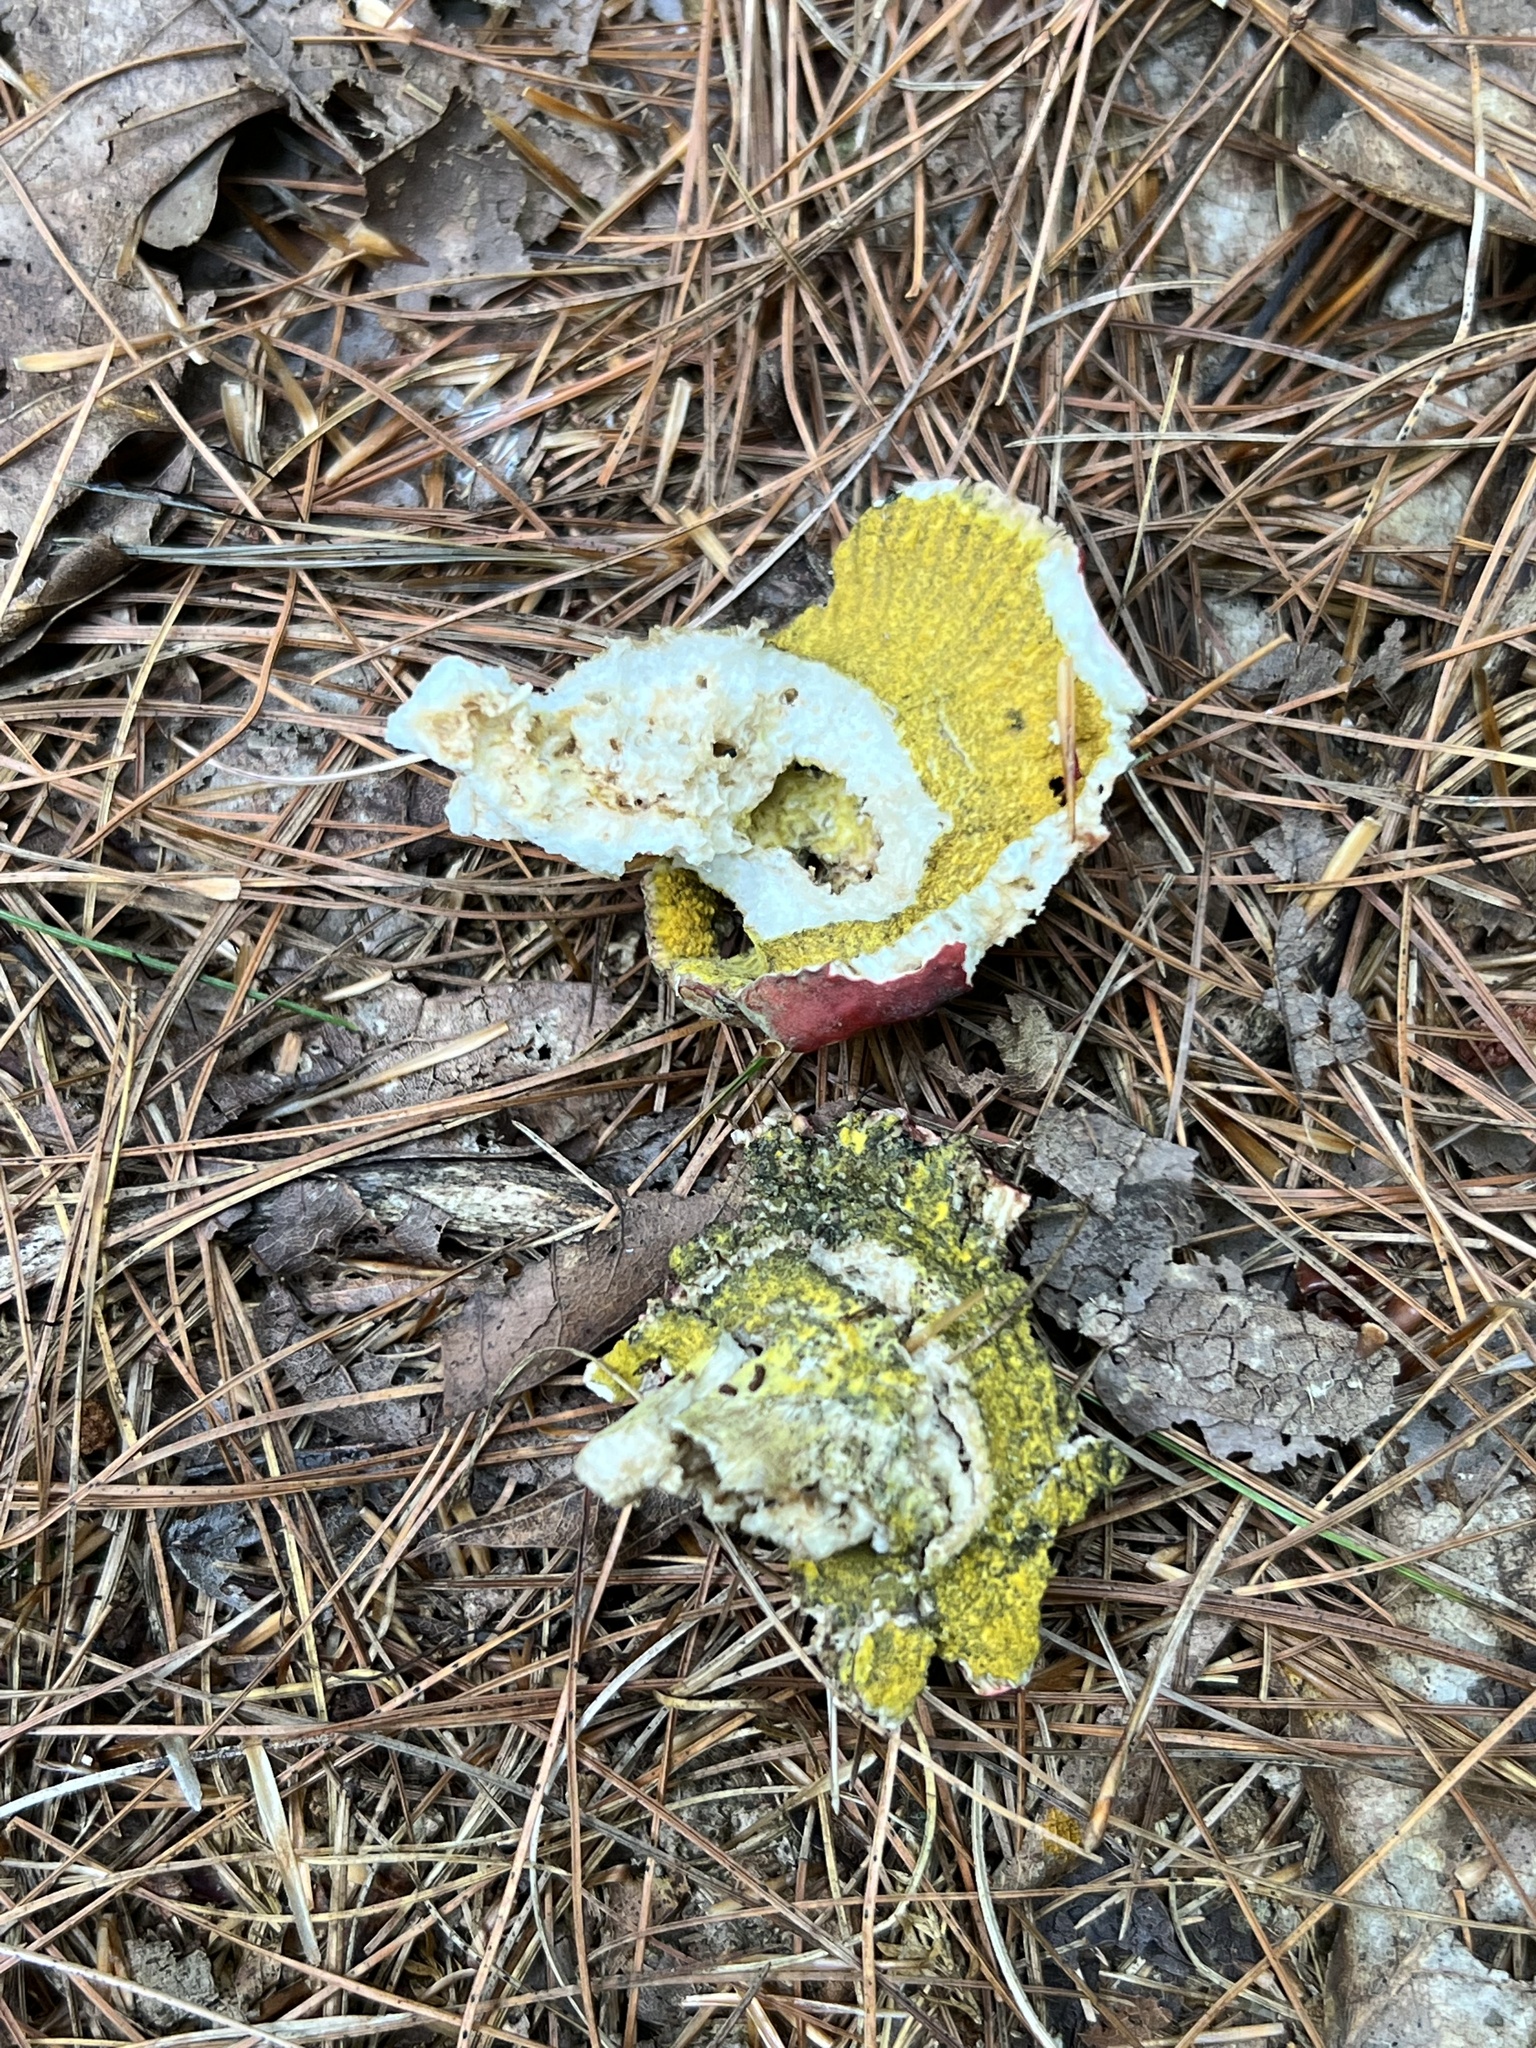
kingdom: Fungi
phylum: Ascomycota
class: Sordariomycetes
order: Hypocreales
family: Hypocreaceae
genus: Hypomyces
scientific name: Hypomyces luteovirens
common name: Yellow-green russula mold
